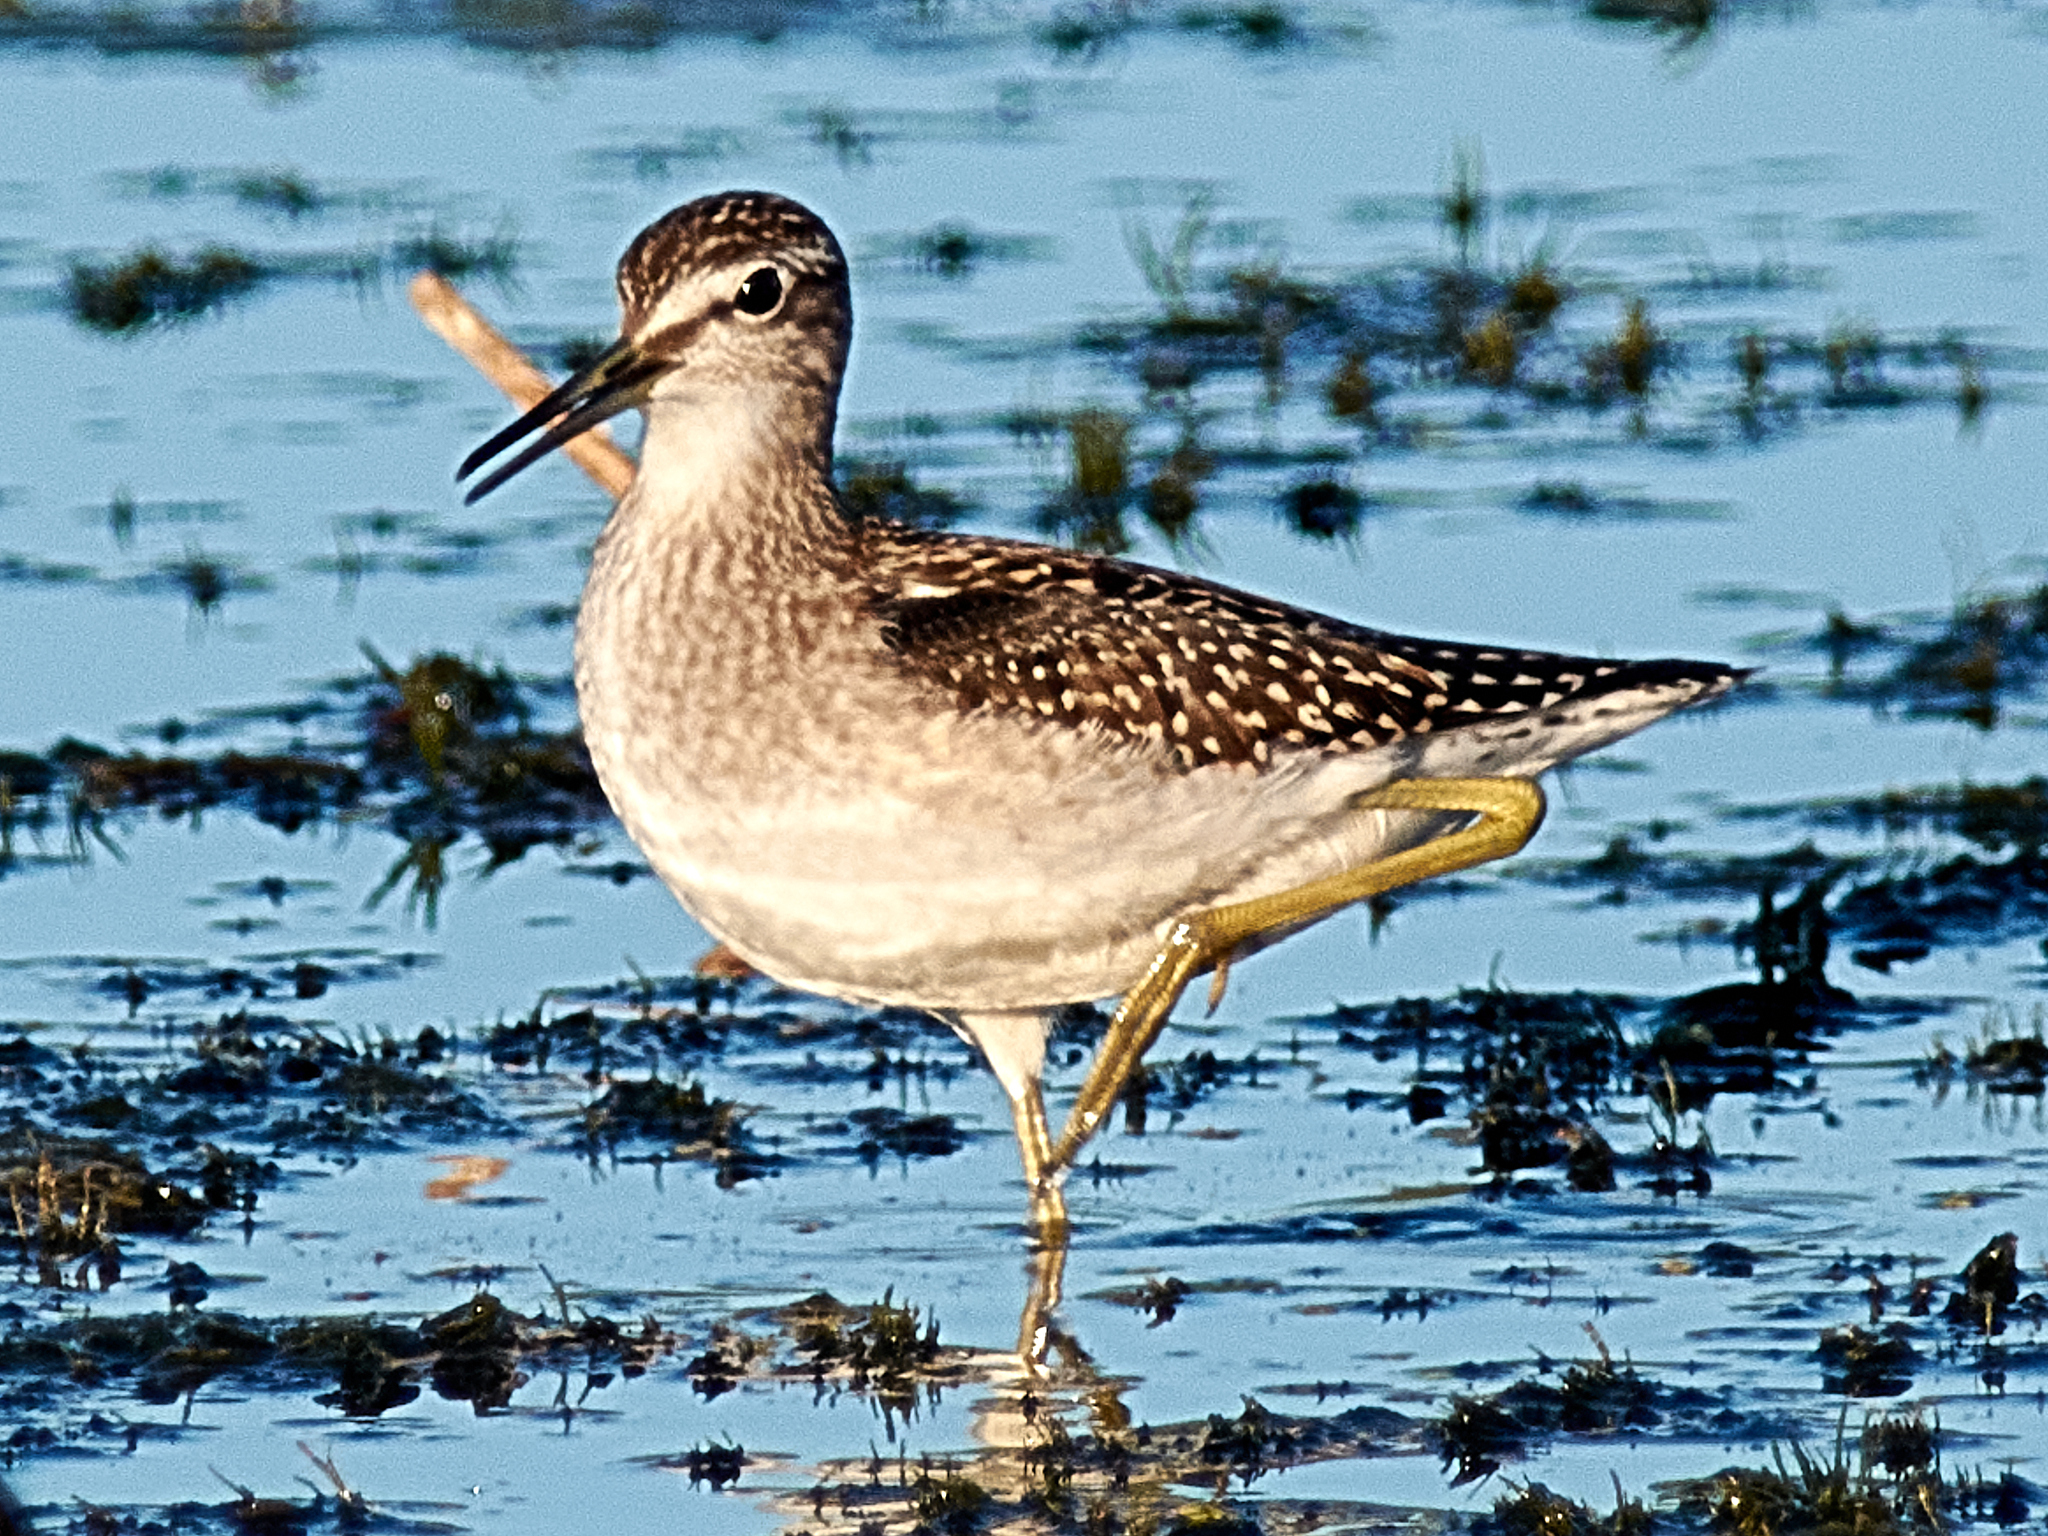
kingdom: Animalia
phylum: Chordata
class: Aves
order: Charadriiformes
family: Scolopacidae
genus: Tringa
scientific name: Tringa glareola
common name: Wood sandpiper
